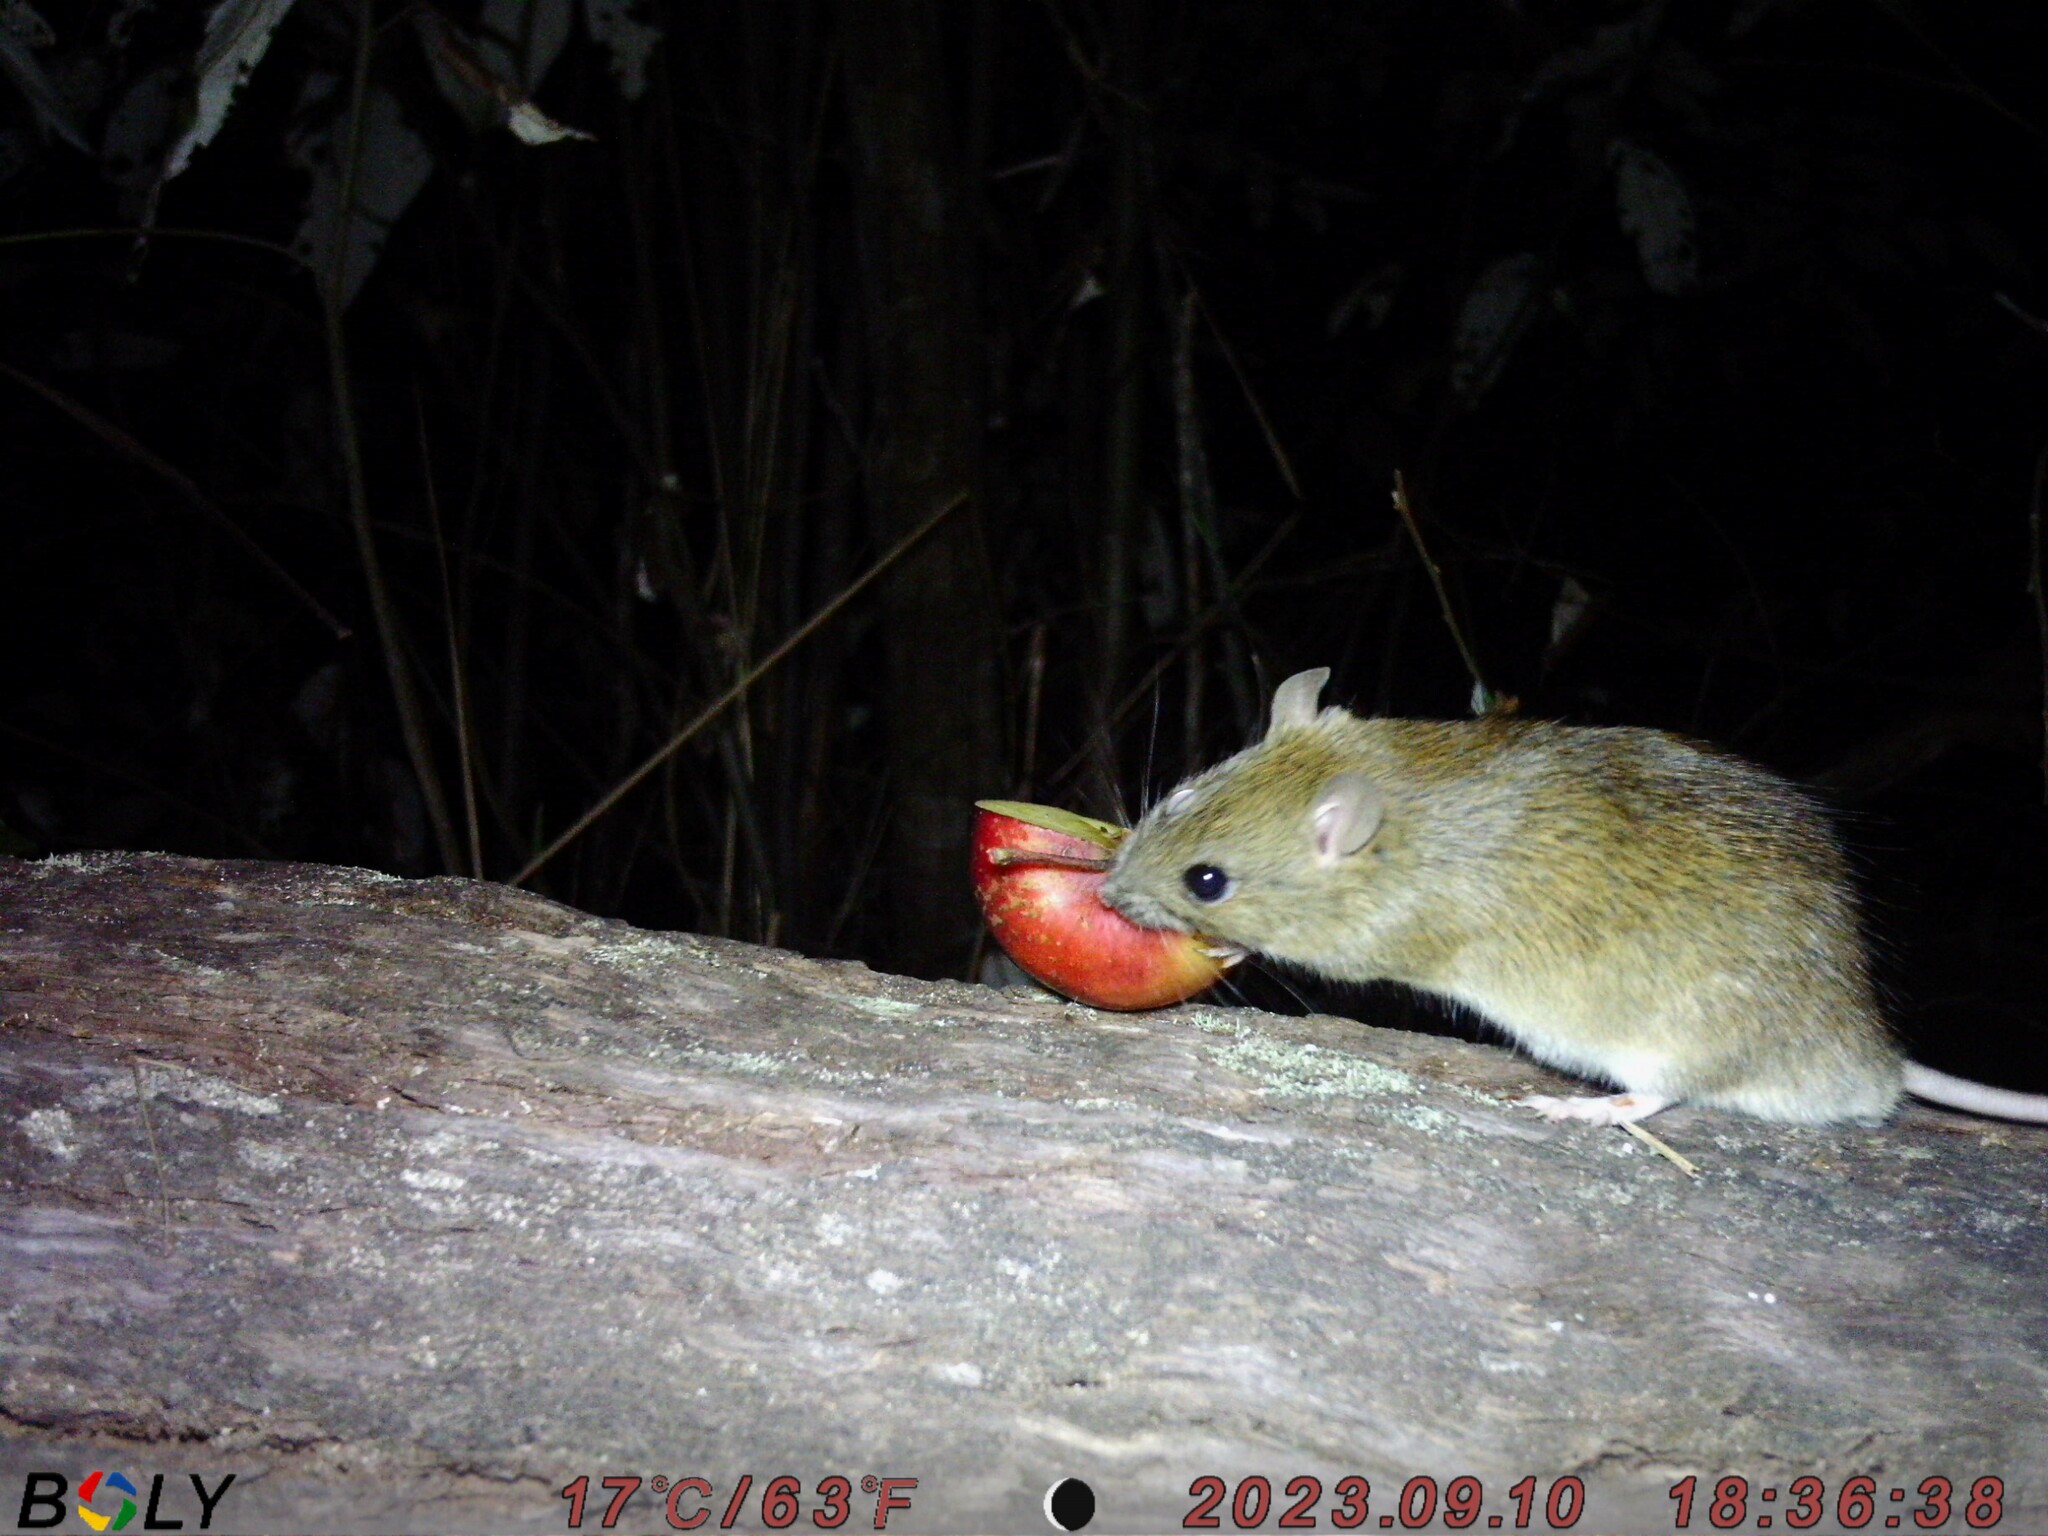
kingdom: Animalia
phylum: Chordata
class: Mammalia
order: Rodentia
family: Muridae
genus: Rattus
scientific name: Rattus tunneyi
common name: Australian pale field rat
